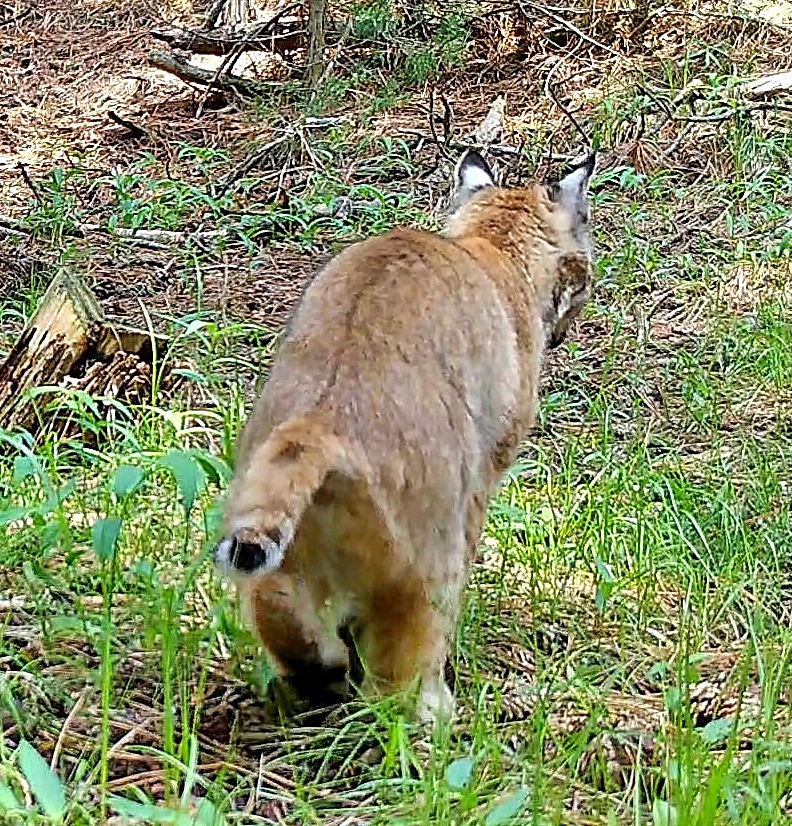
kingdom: Animalia
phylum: Chordata
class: Mammalia
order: Carnivora
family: Felidae
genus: Lynx
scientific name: Lynx rufus
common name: Bobcat
